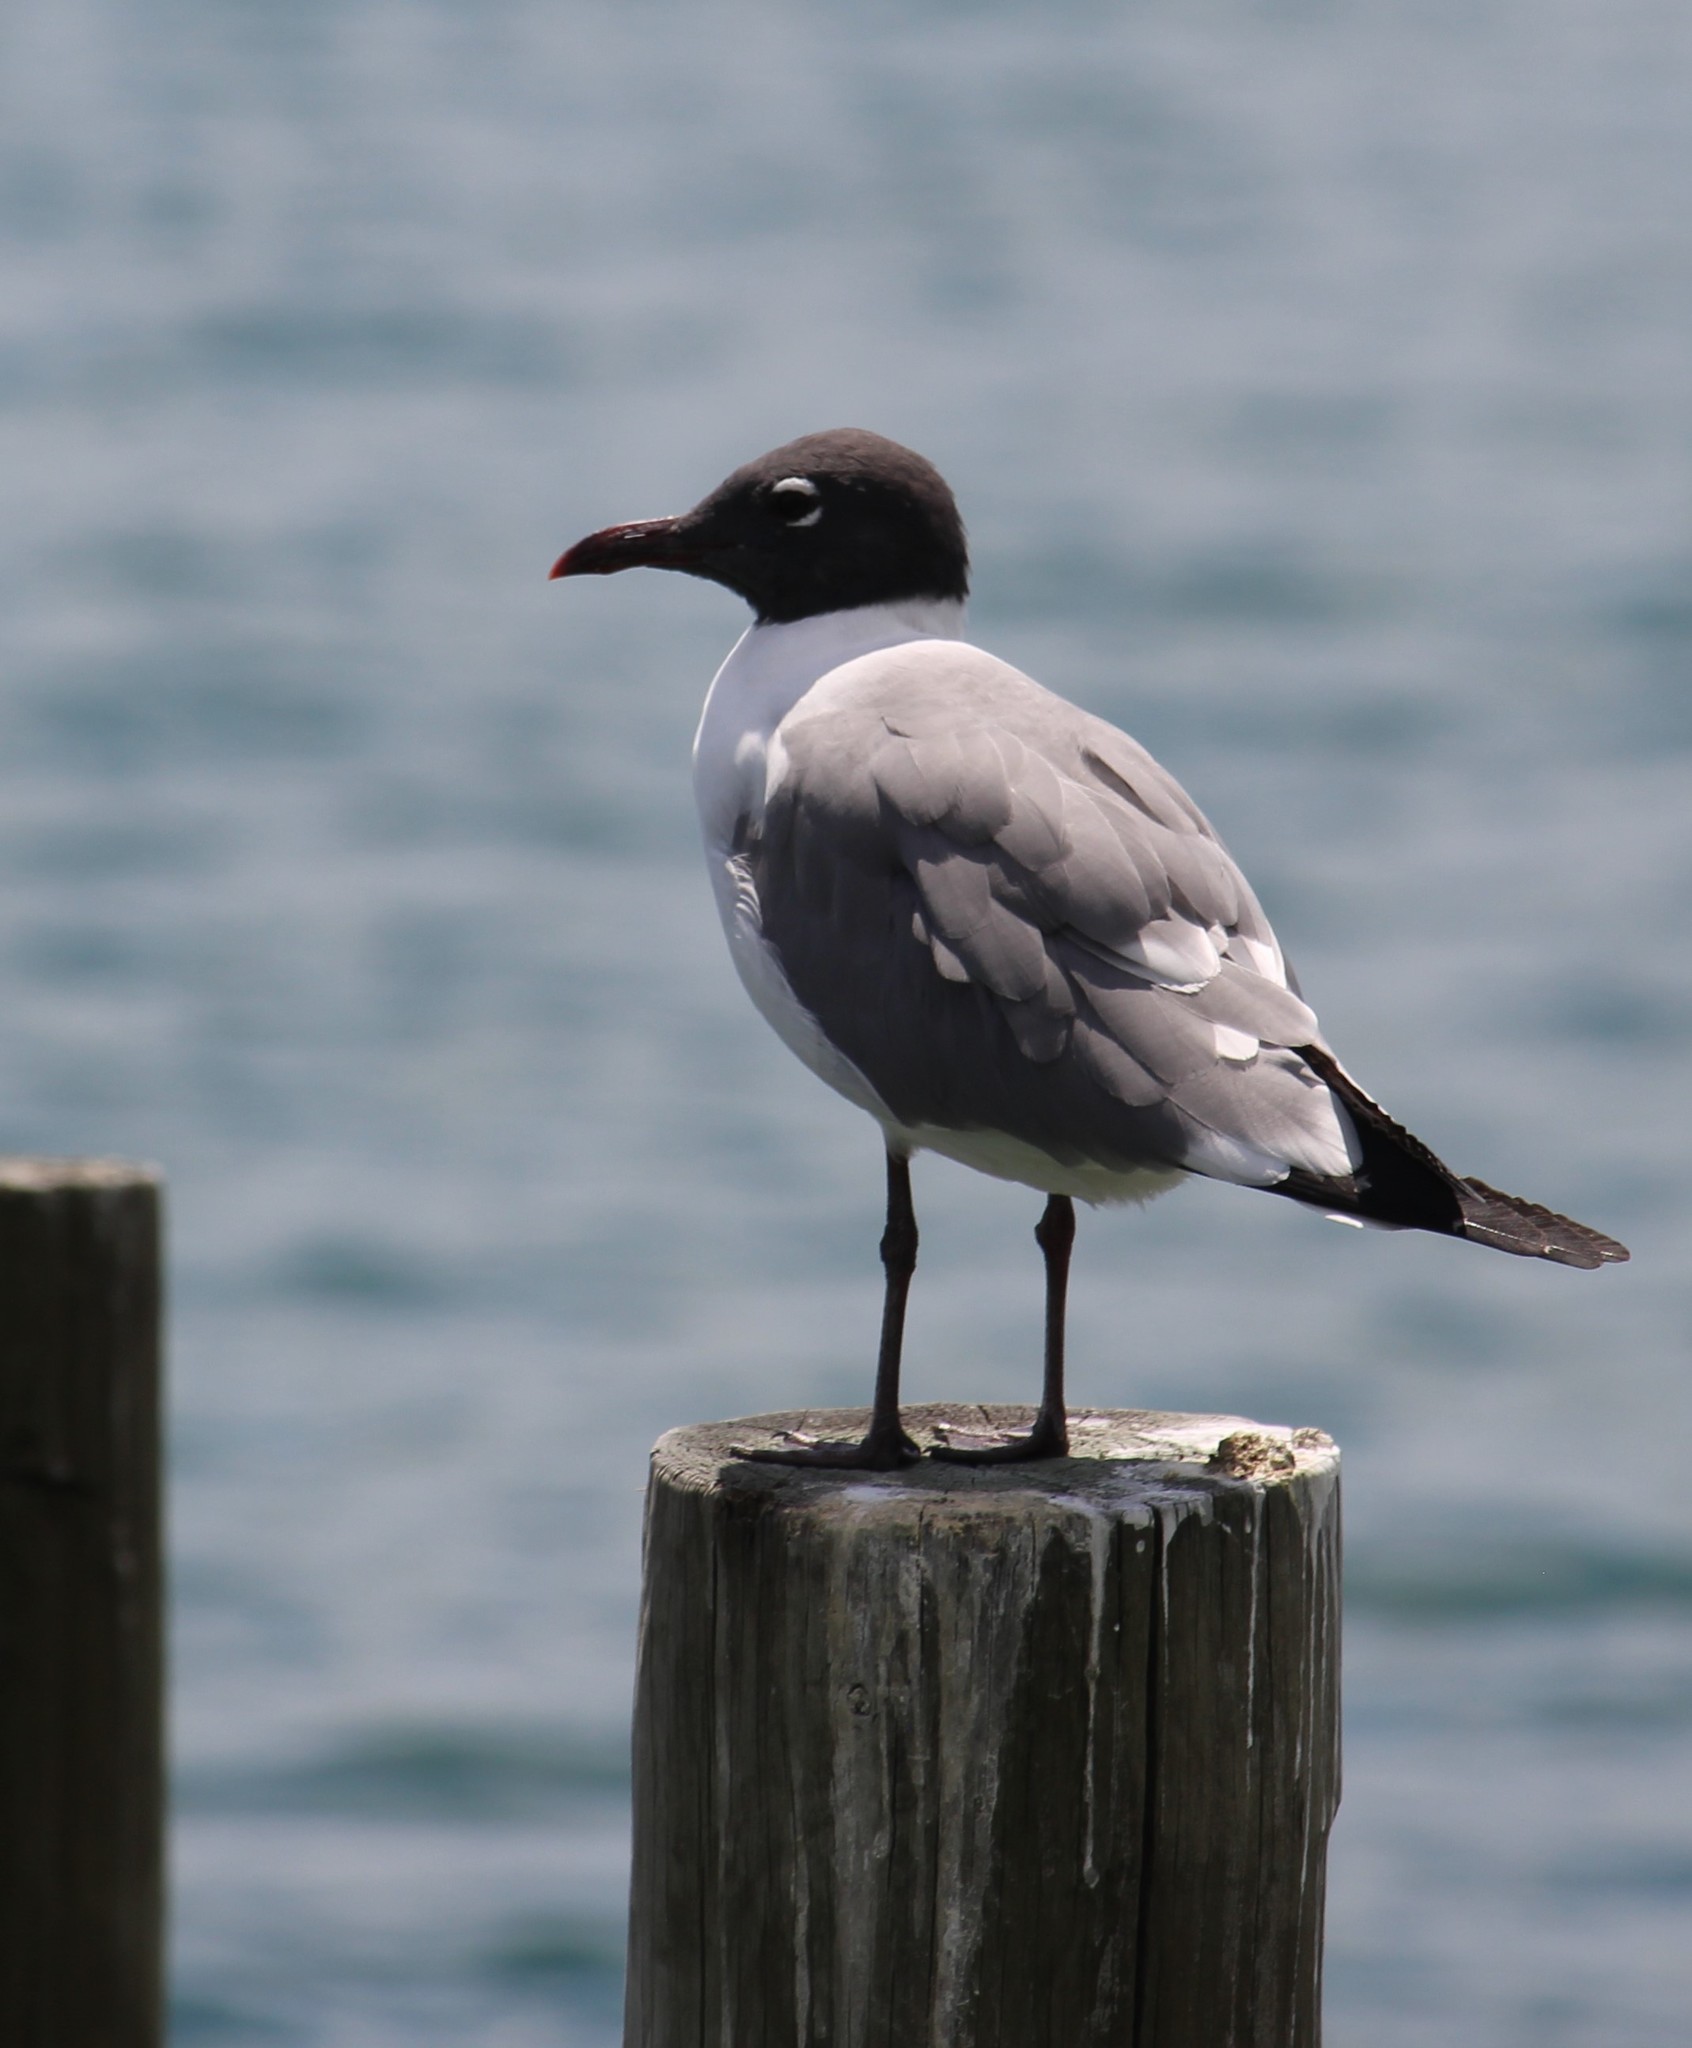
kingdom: Animalia
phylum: Chordata
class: Aves
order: Charadriiformes
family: Laridae
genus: Leucophaeus
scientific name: Leucophaeus atricilla
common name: Laughing gull
